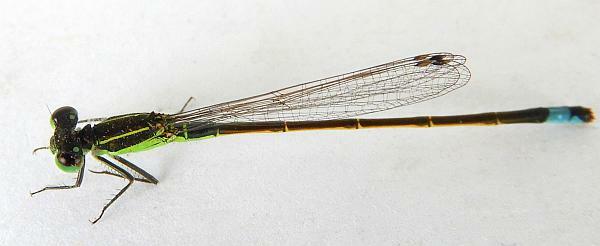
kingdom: Animalia
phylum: Arthropoda
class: Insecta
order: Odonata
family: Coenagrionidae
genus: Ischnura
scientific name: Ischnura ramburii
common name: Rambur's forktail
